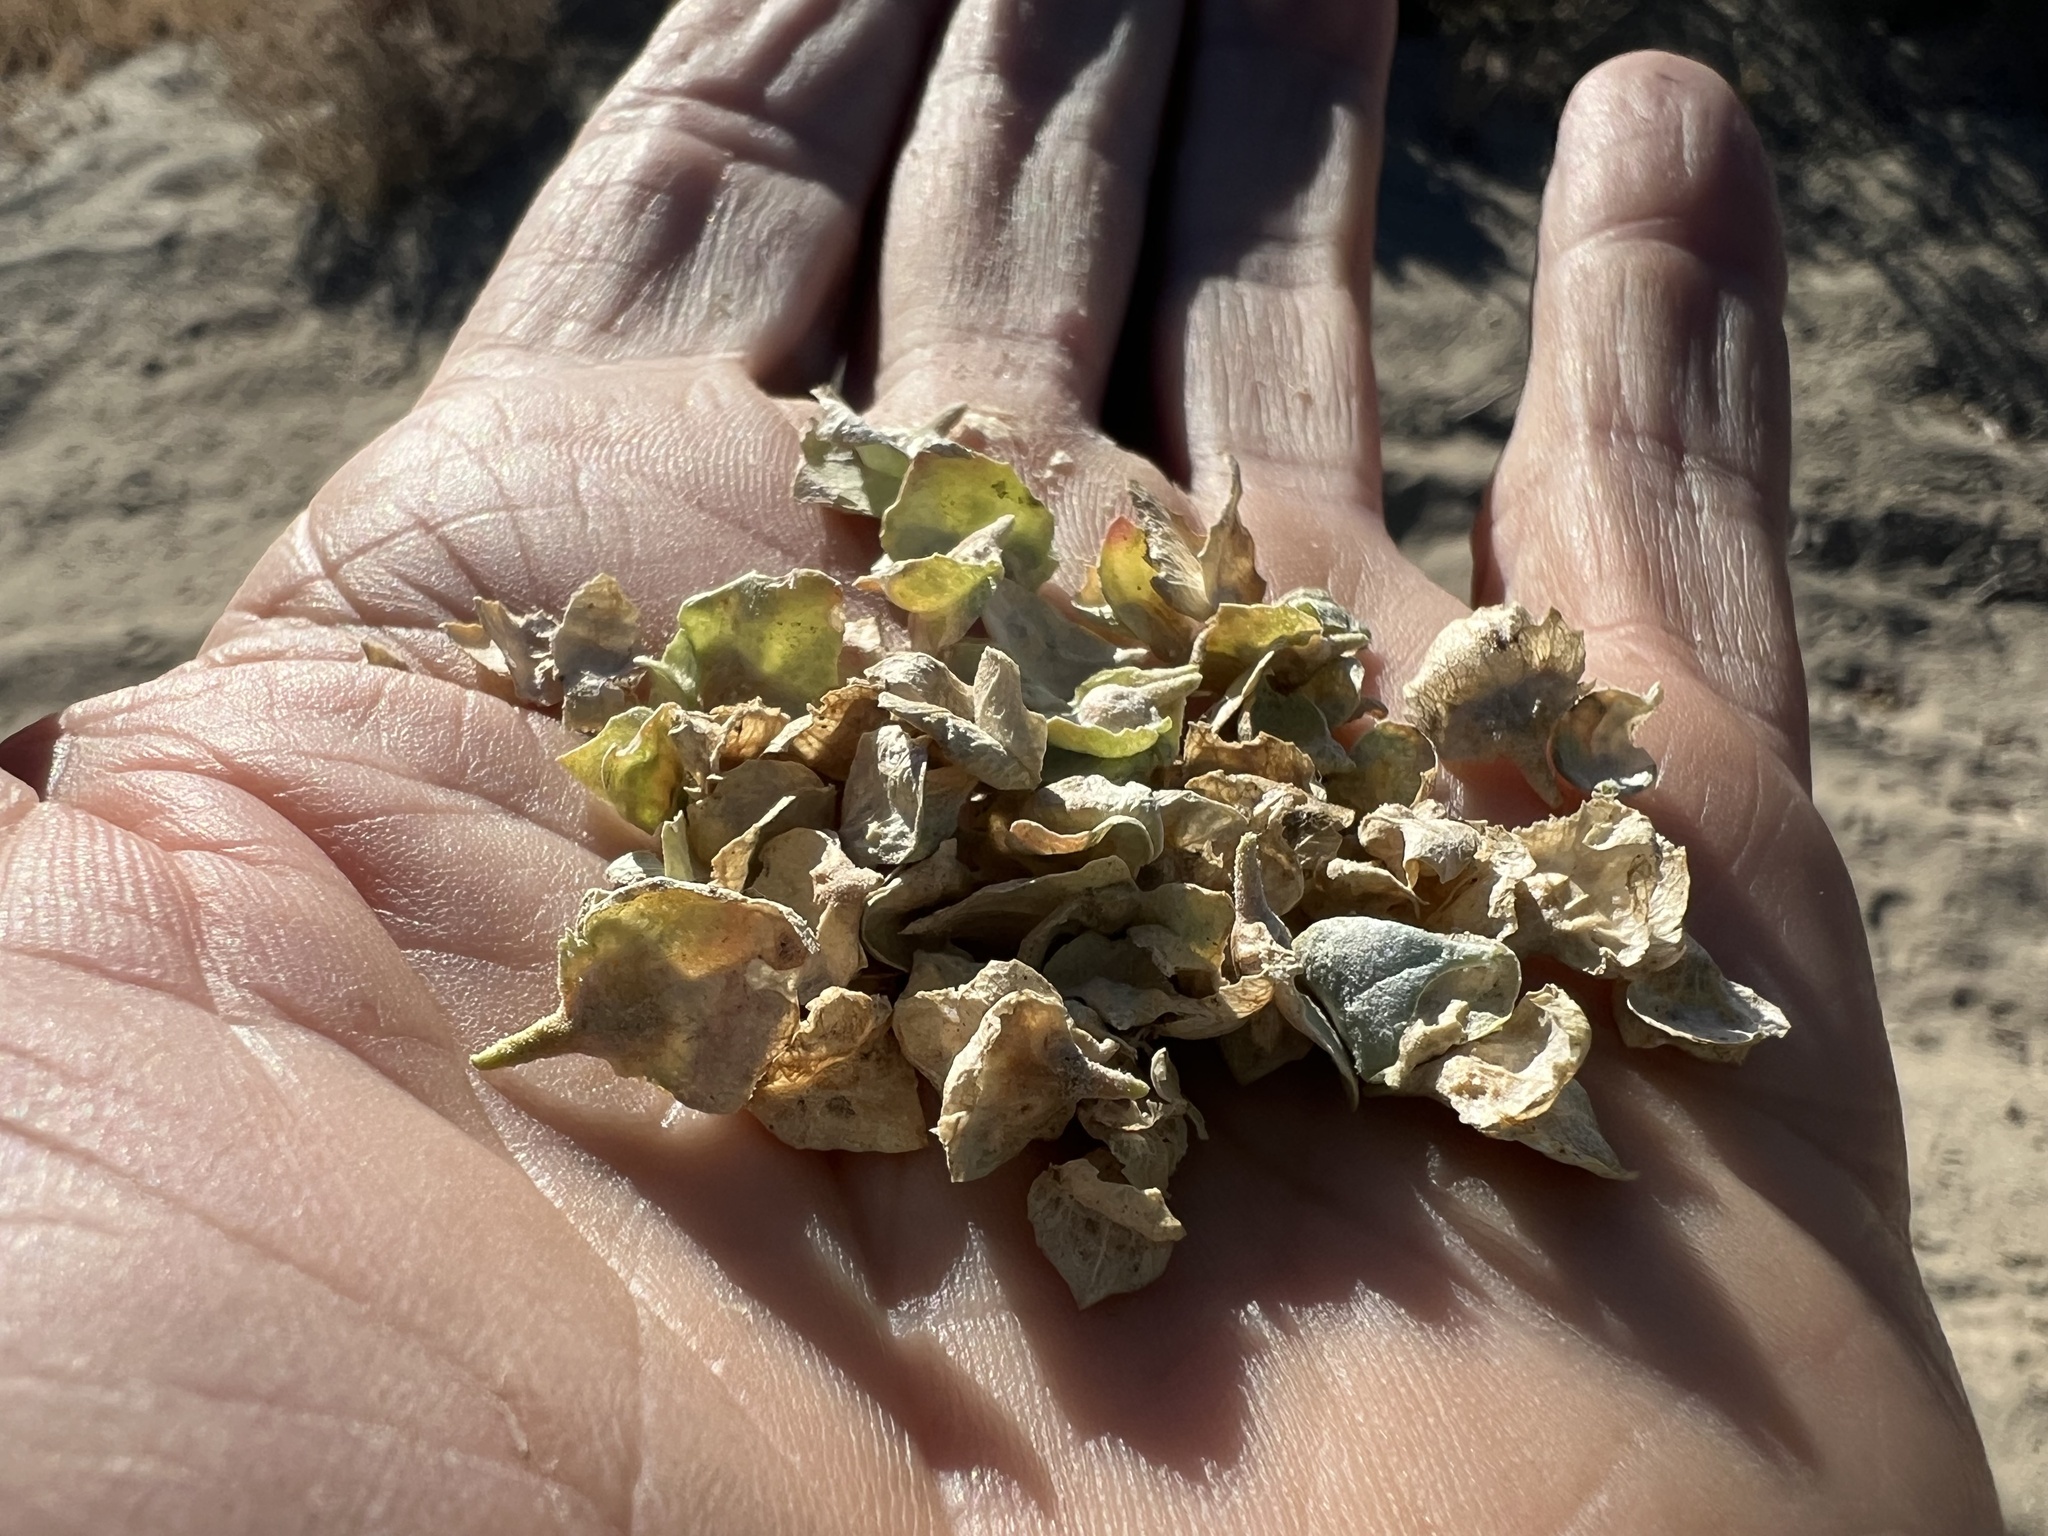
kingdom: Plantae
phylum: Tracheophyta
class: Magnoliopsida
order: Caryophyllales
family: Amaranthaceae
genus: Atriplex
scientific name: Atriplex confertifolia
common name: Shadscale
